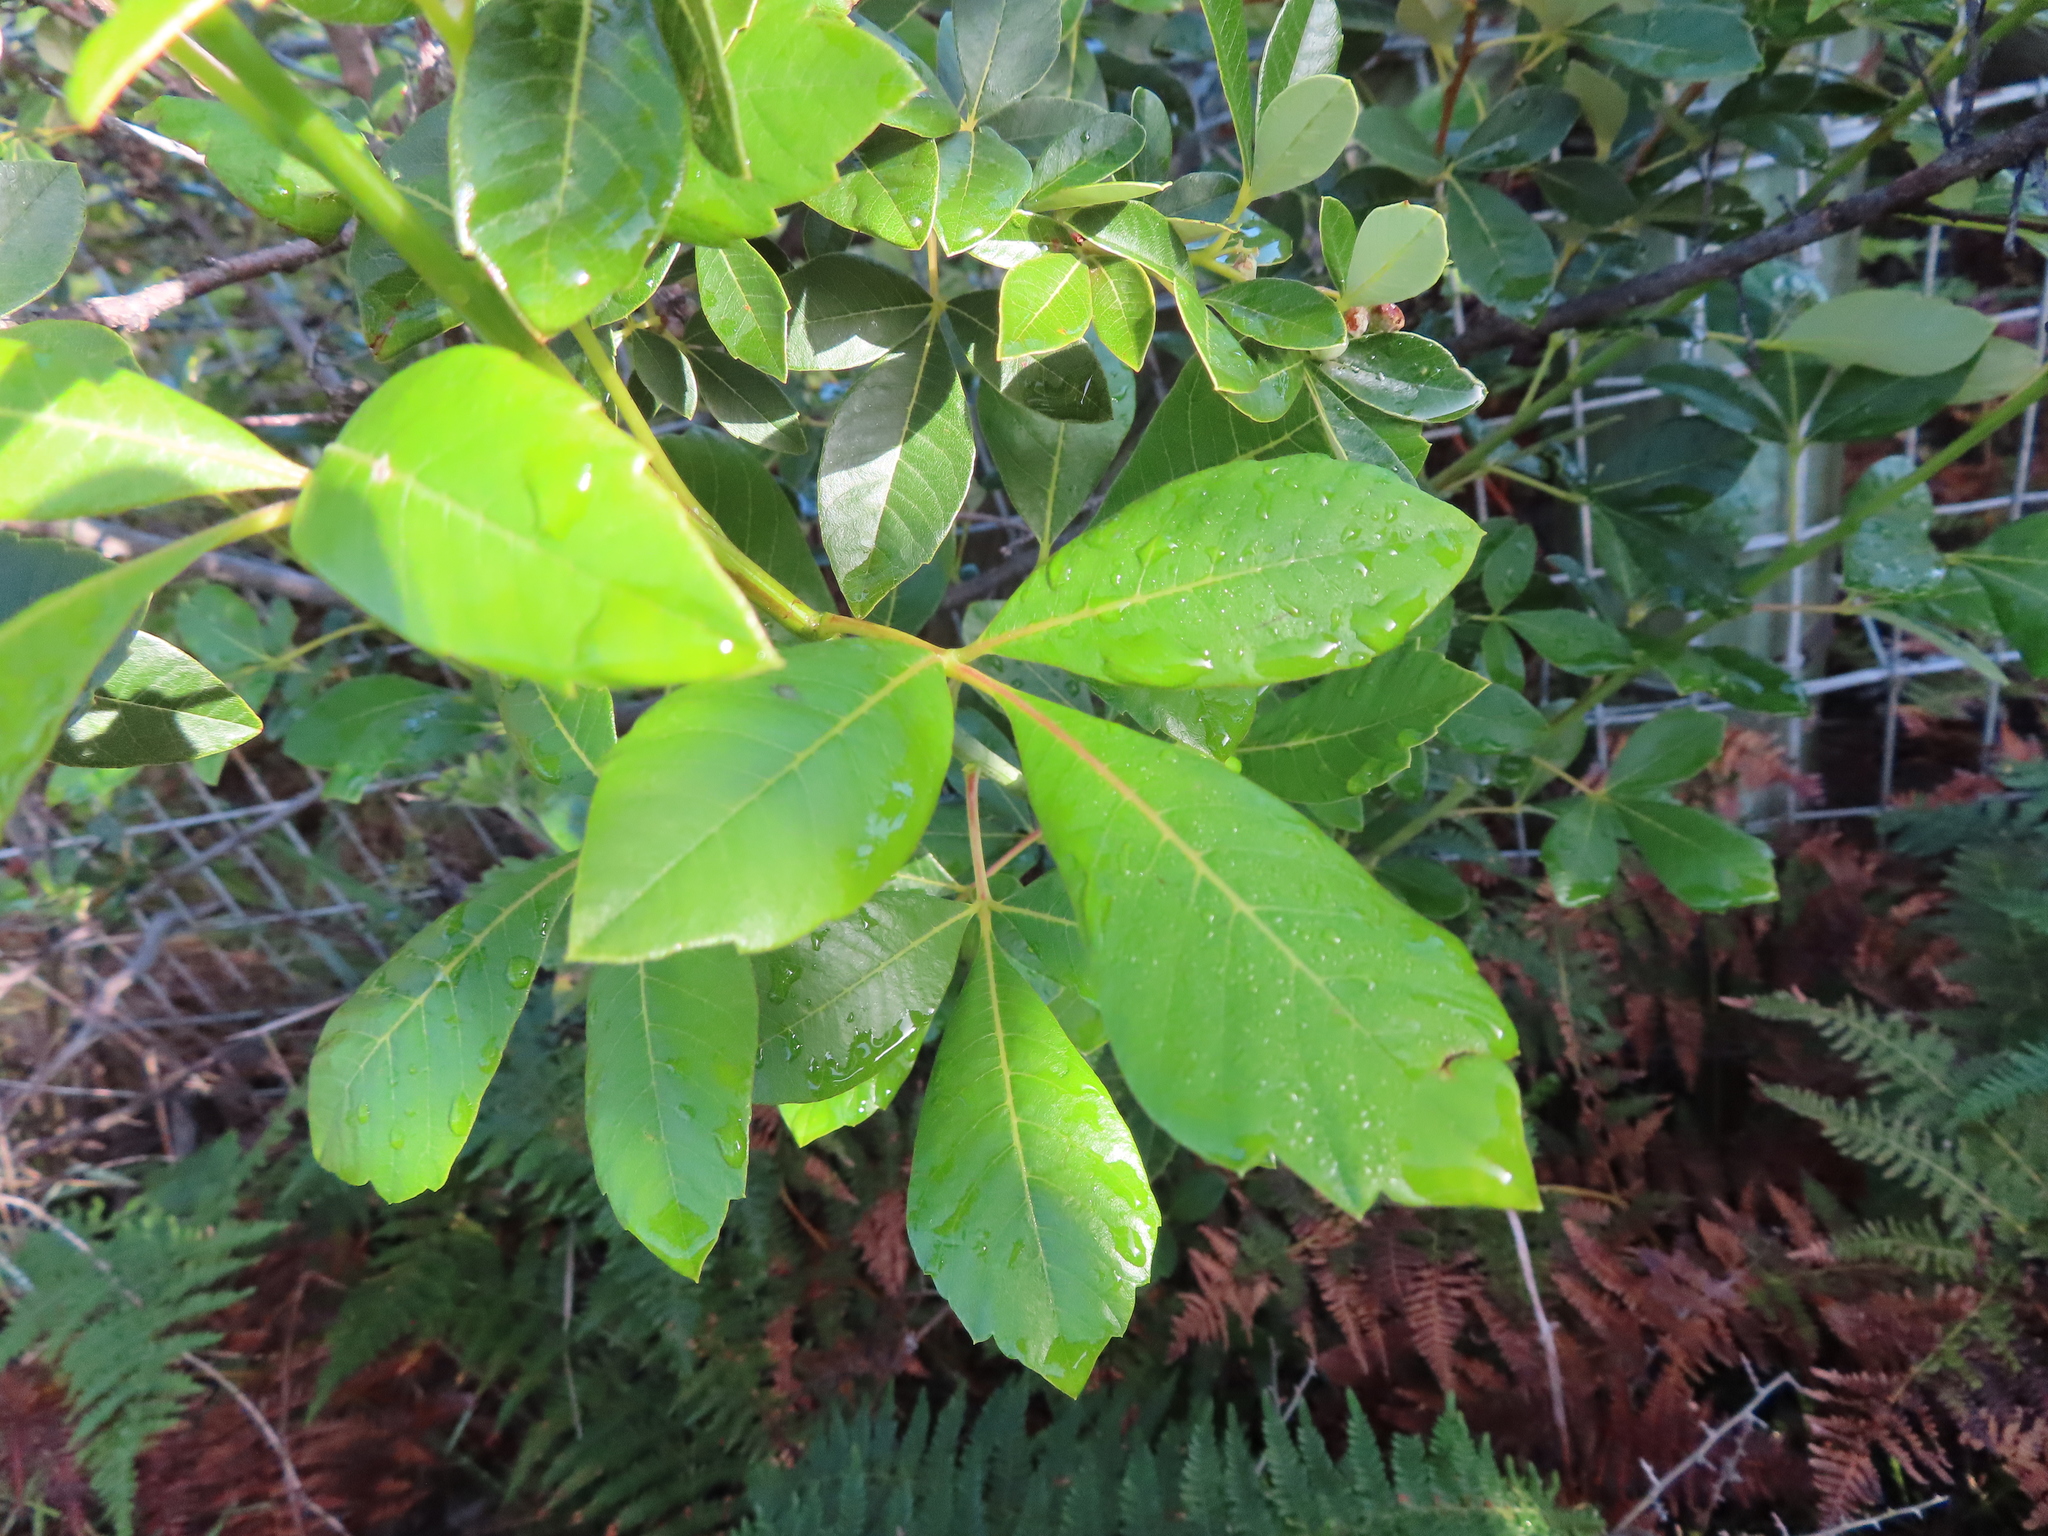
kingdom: Plantae
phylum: Tracheophyta
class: Magnoliopsida
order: Sapindales
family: Anacardiaceae
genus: Searsia
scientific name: Searsia tomentosa
